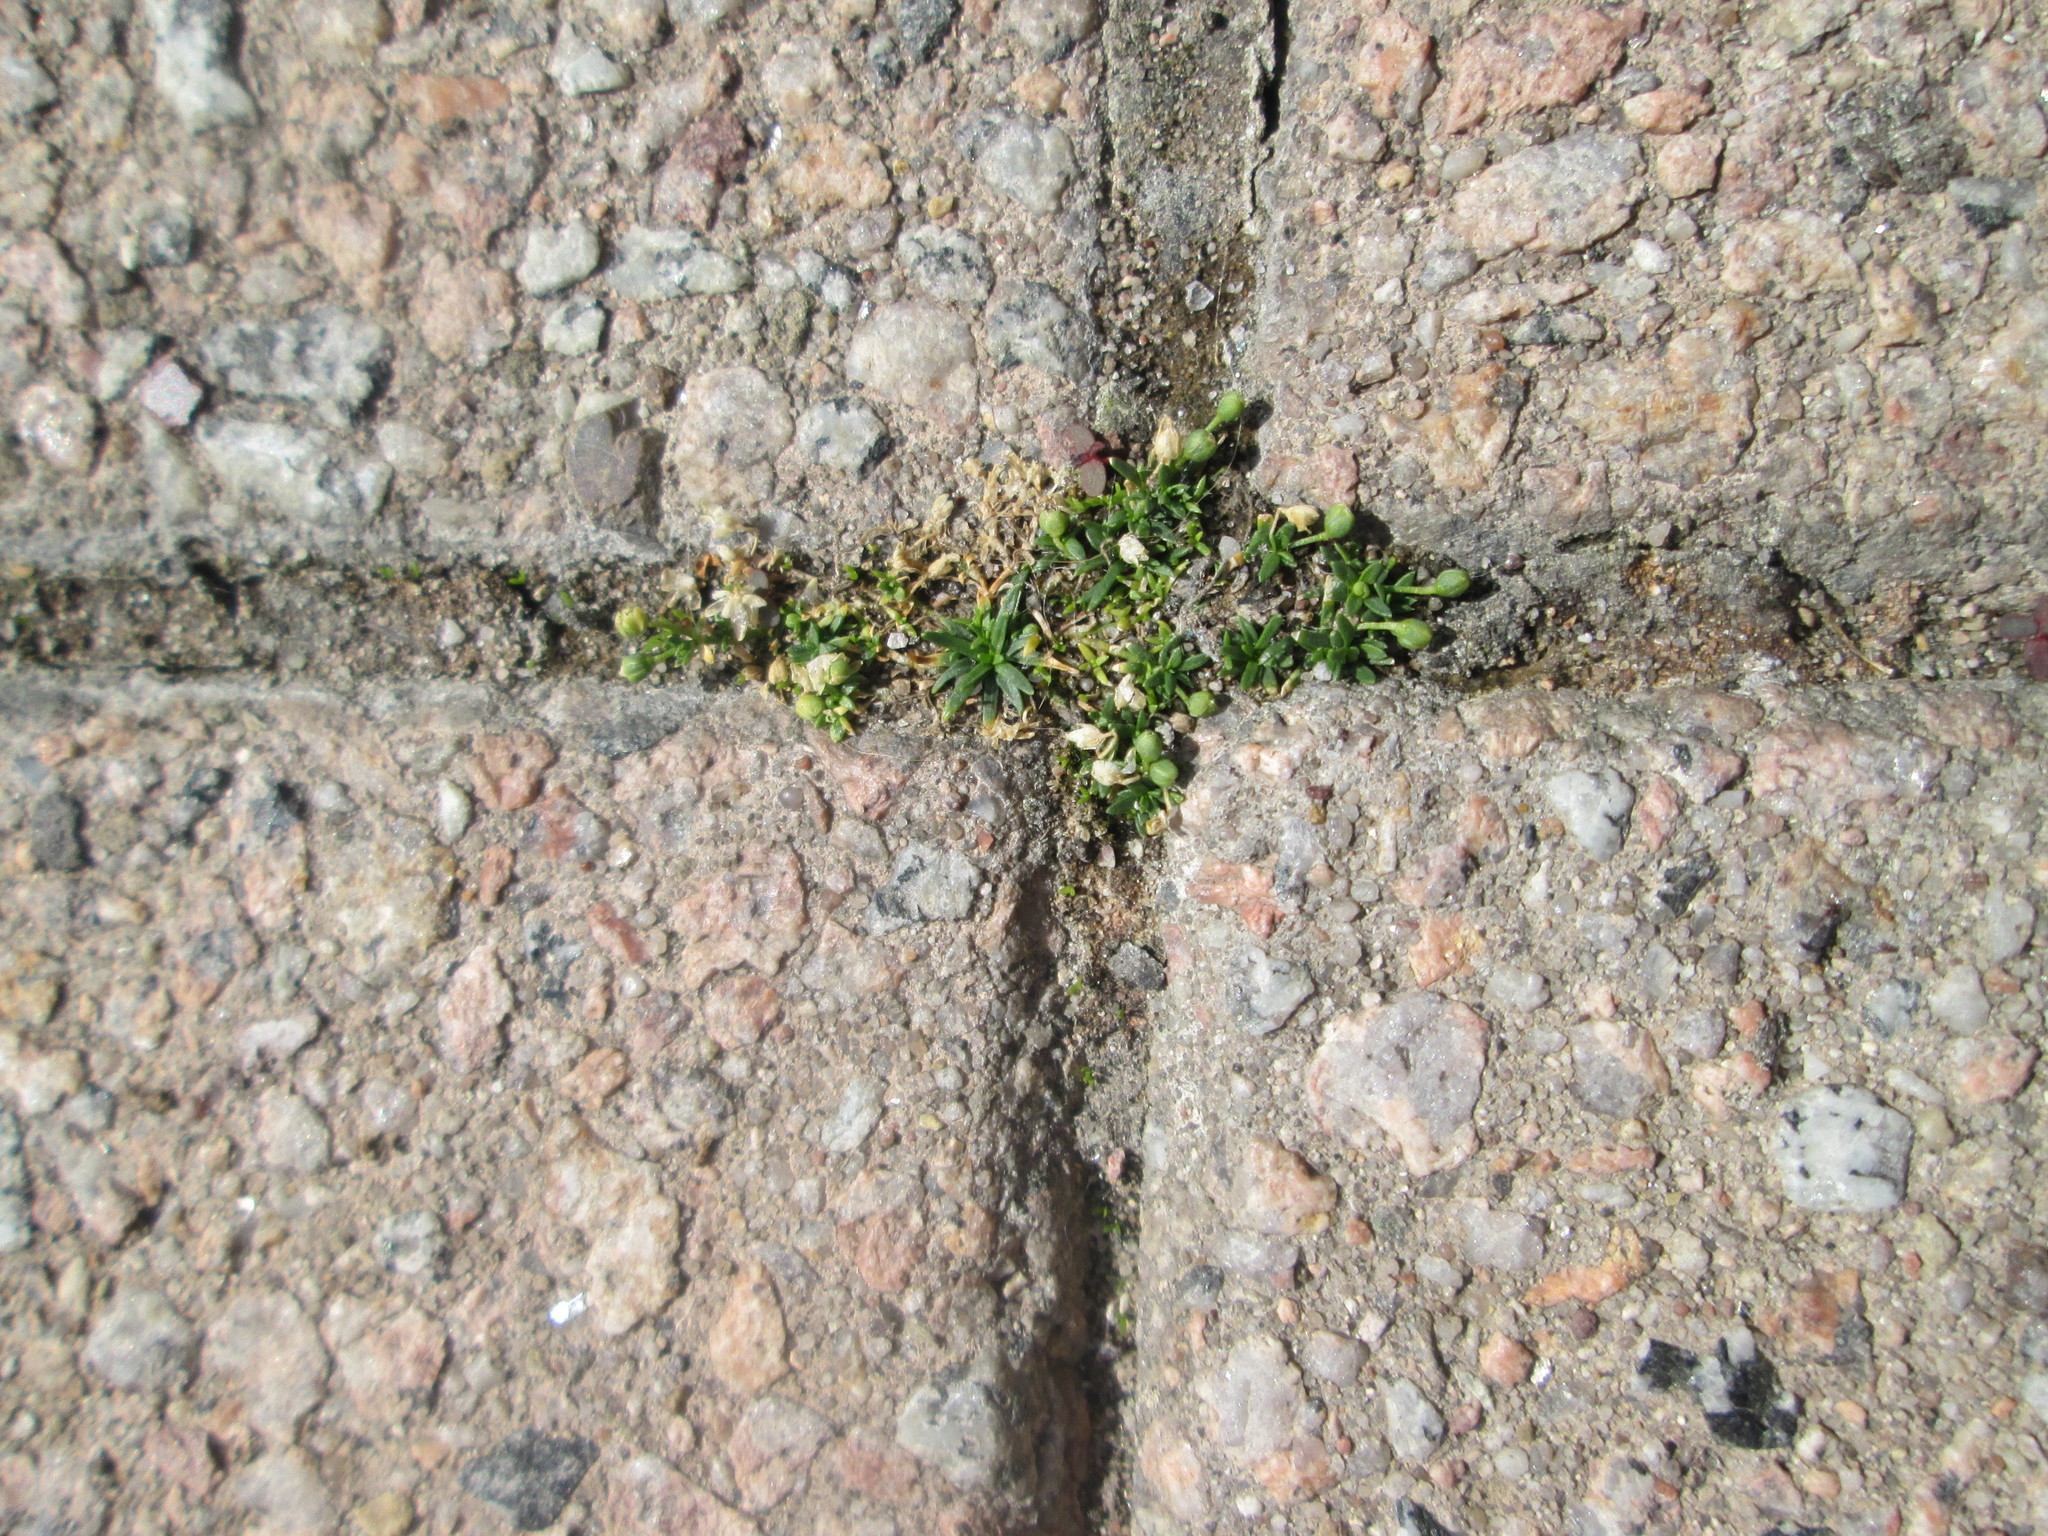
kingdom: Plantae
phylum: Tracheophyta
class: Magnoliopsida
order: Caryophyllales
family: Caryophyllaceae
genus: Sagina
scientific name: Sagina procumbens
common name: Procumbent pearlwort
